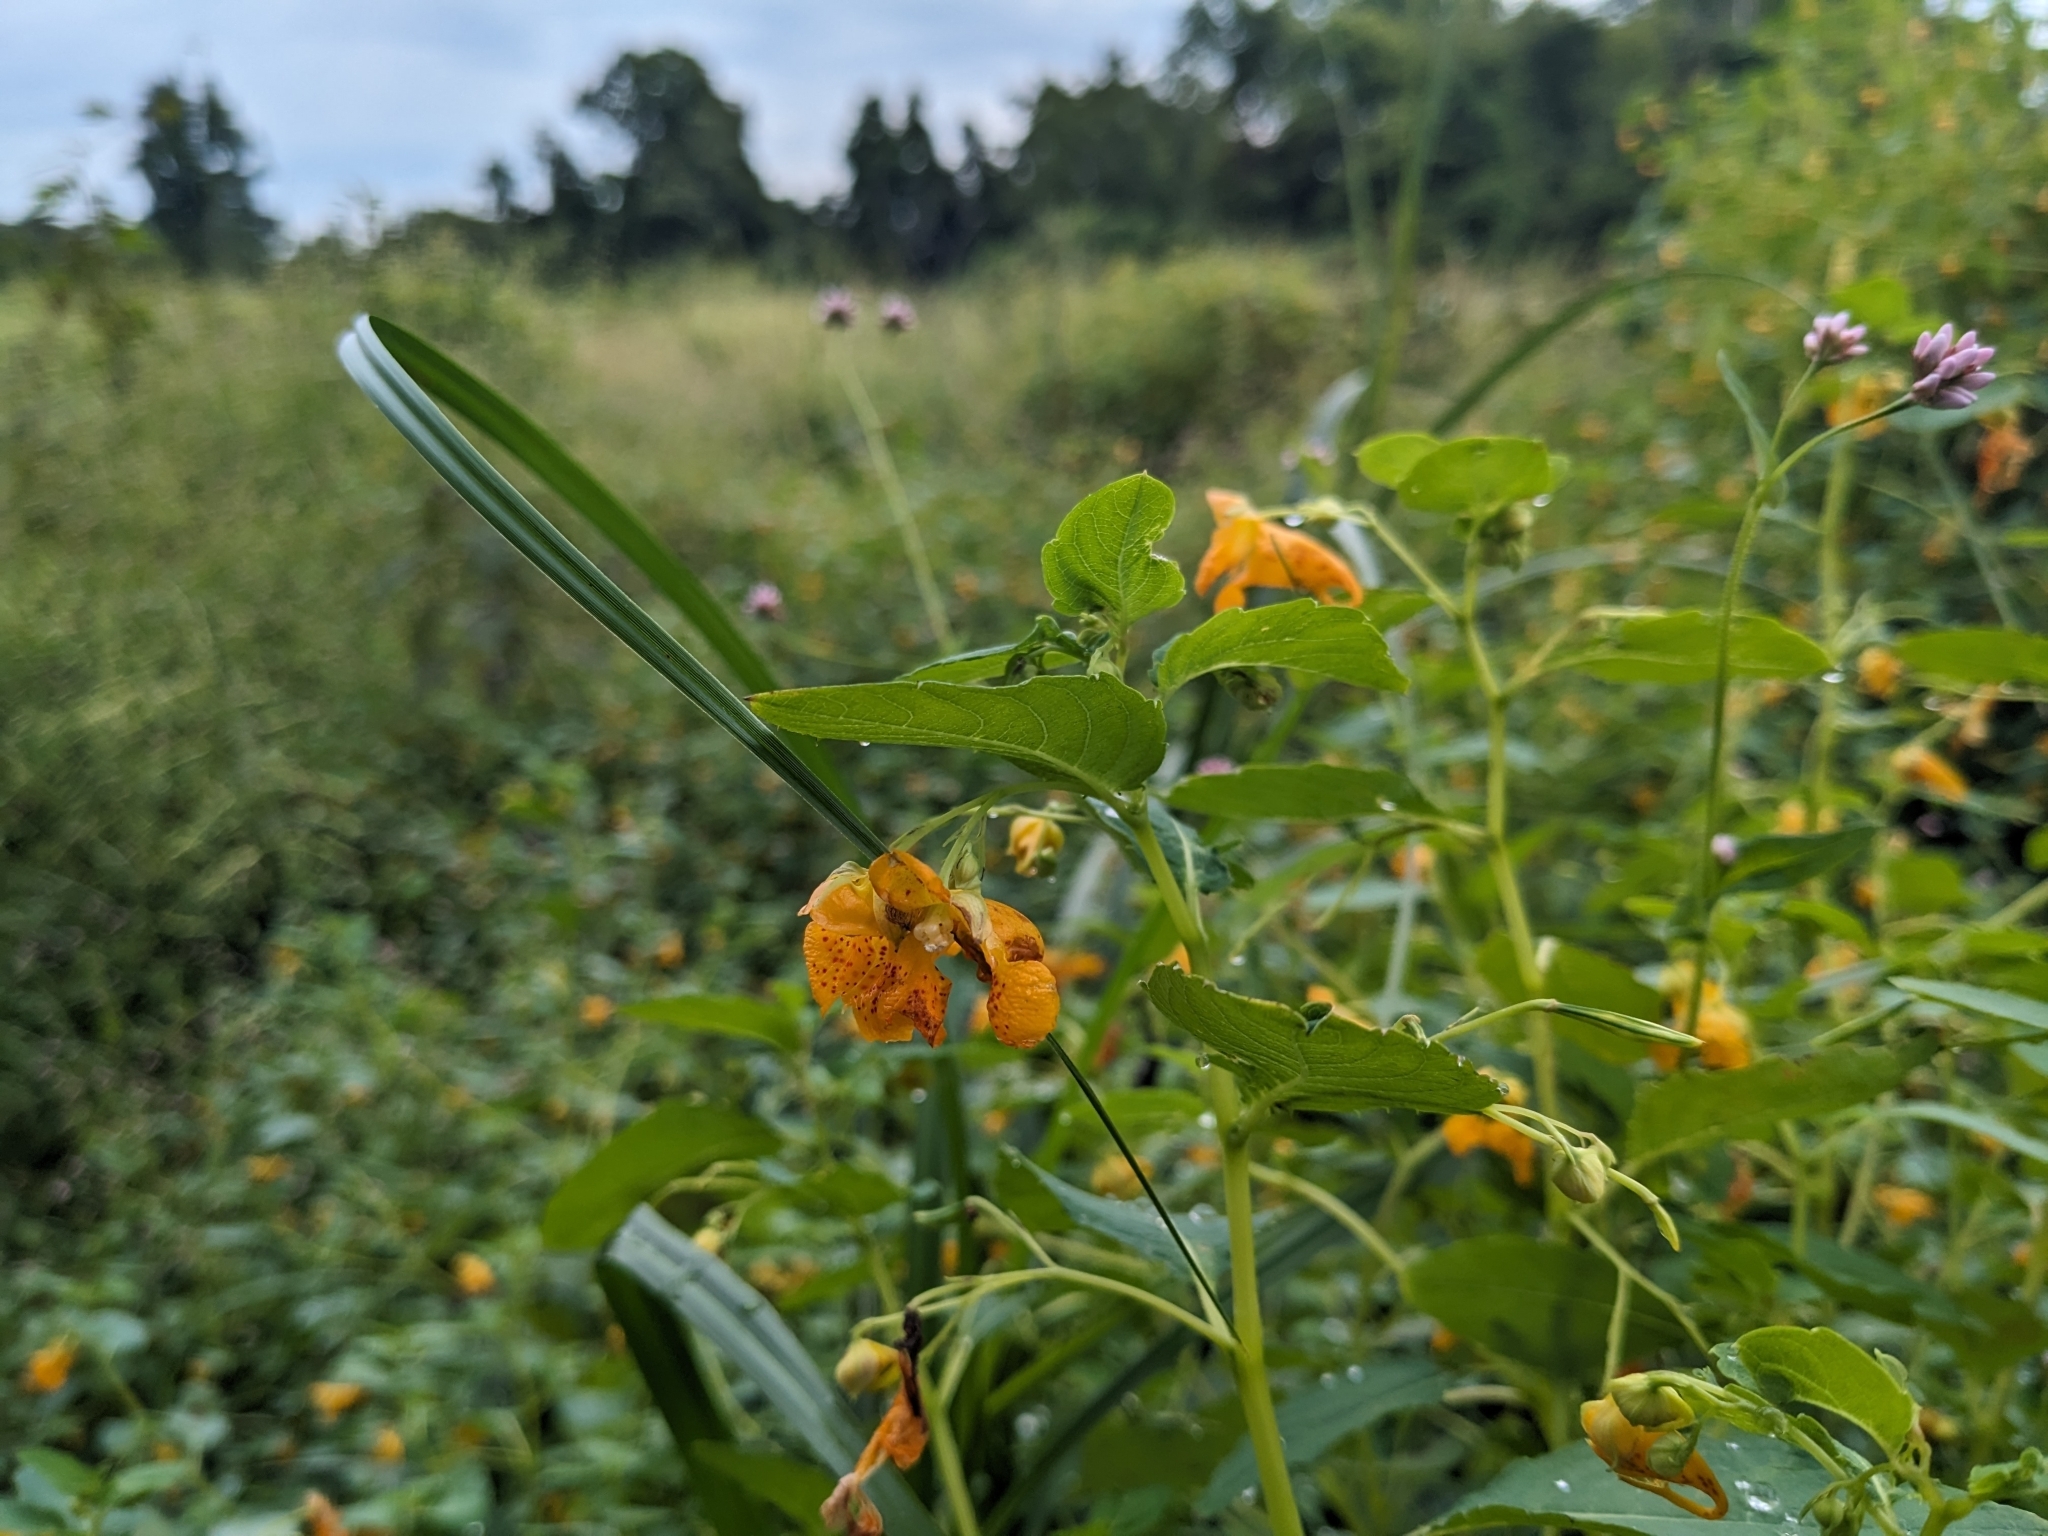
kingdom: Plantae
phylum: Tracheophyta
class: Magnoliopsida
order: Ericales
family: Balsaminaceae
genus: Impatiens
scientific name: Impatiens capensis
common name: Orange balsam
